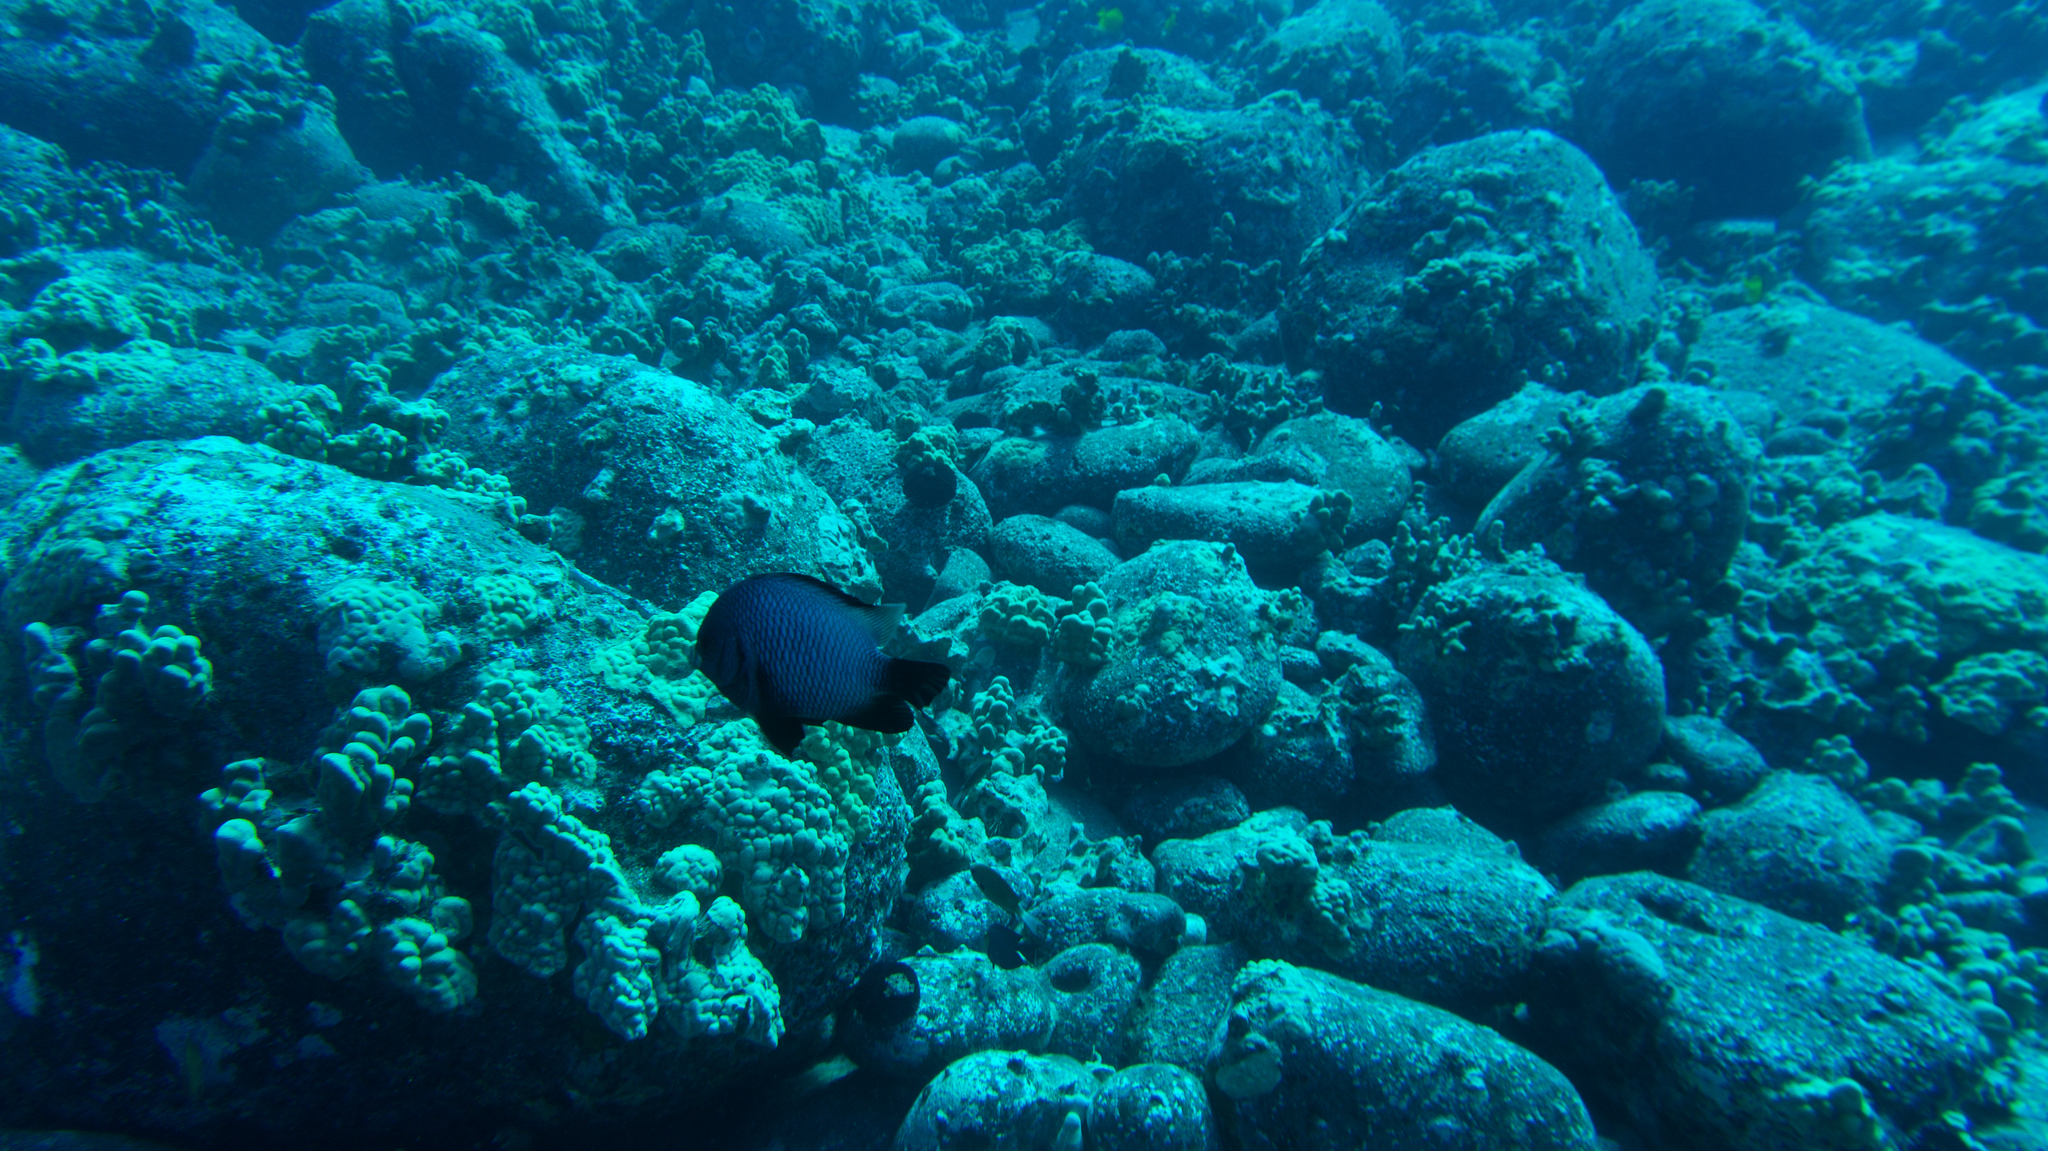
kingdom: Animalia
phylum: Chordata
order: Perciformes
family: Pomacentridae
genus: Dascyllus
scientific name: Dascyllus albisella
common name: Hawaiian dascyllus
